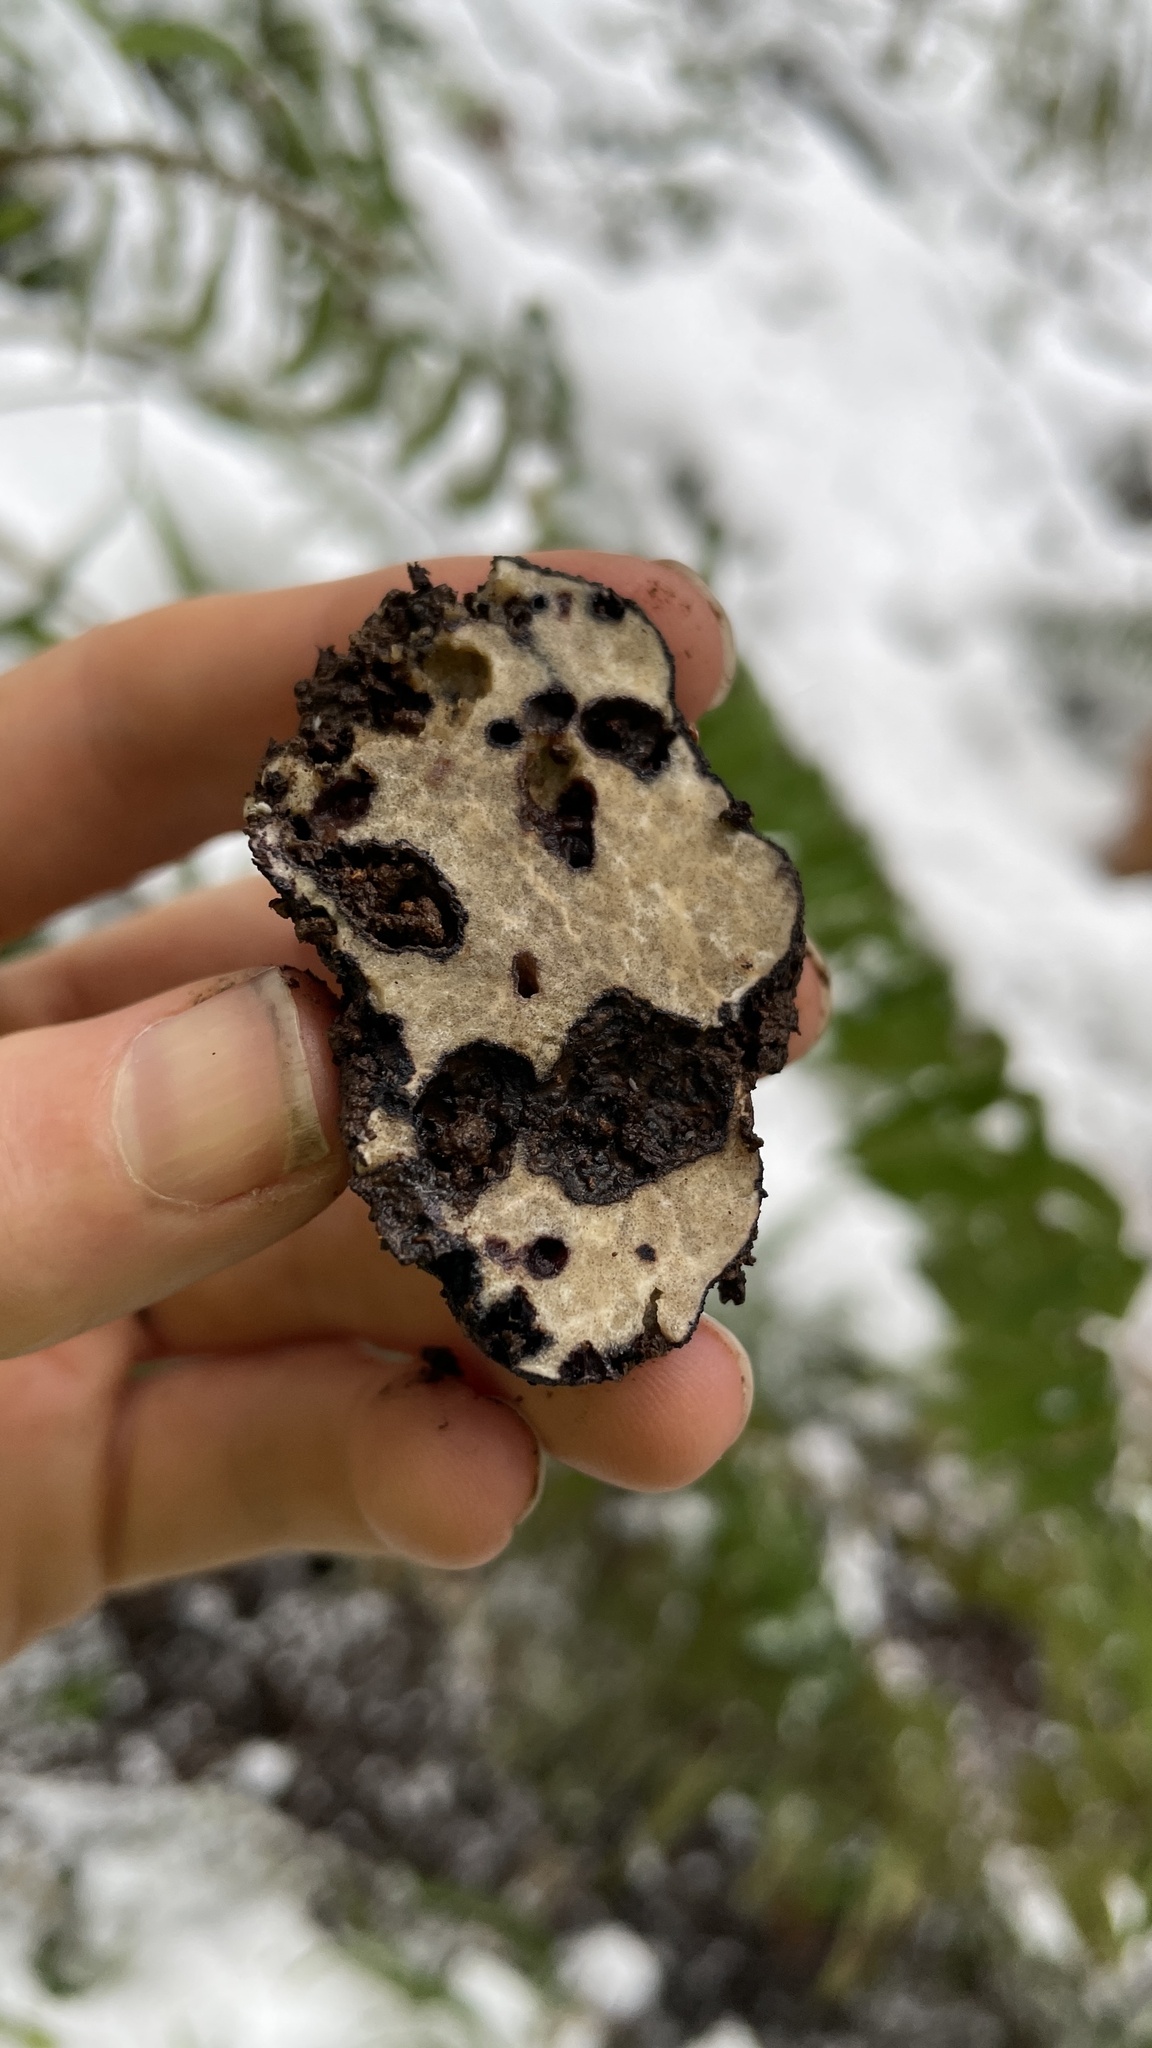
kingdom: Fungi
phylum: Ascomycota
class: Pezizomycetes
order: Pezizales
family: Morchellaceae
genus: Leucangium
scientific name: Leucangium carthusianum
